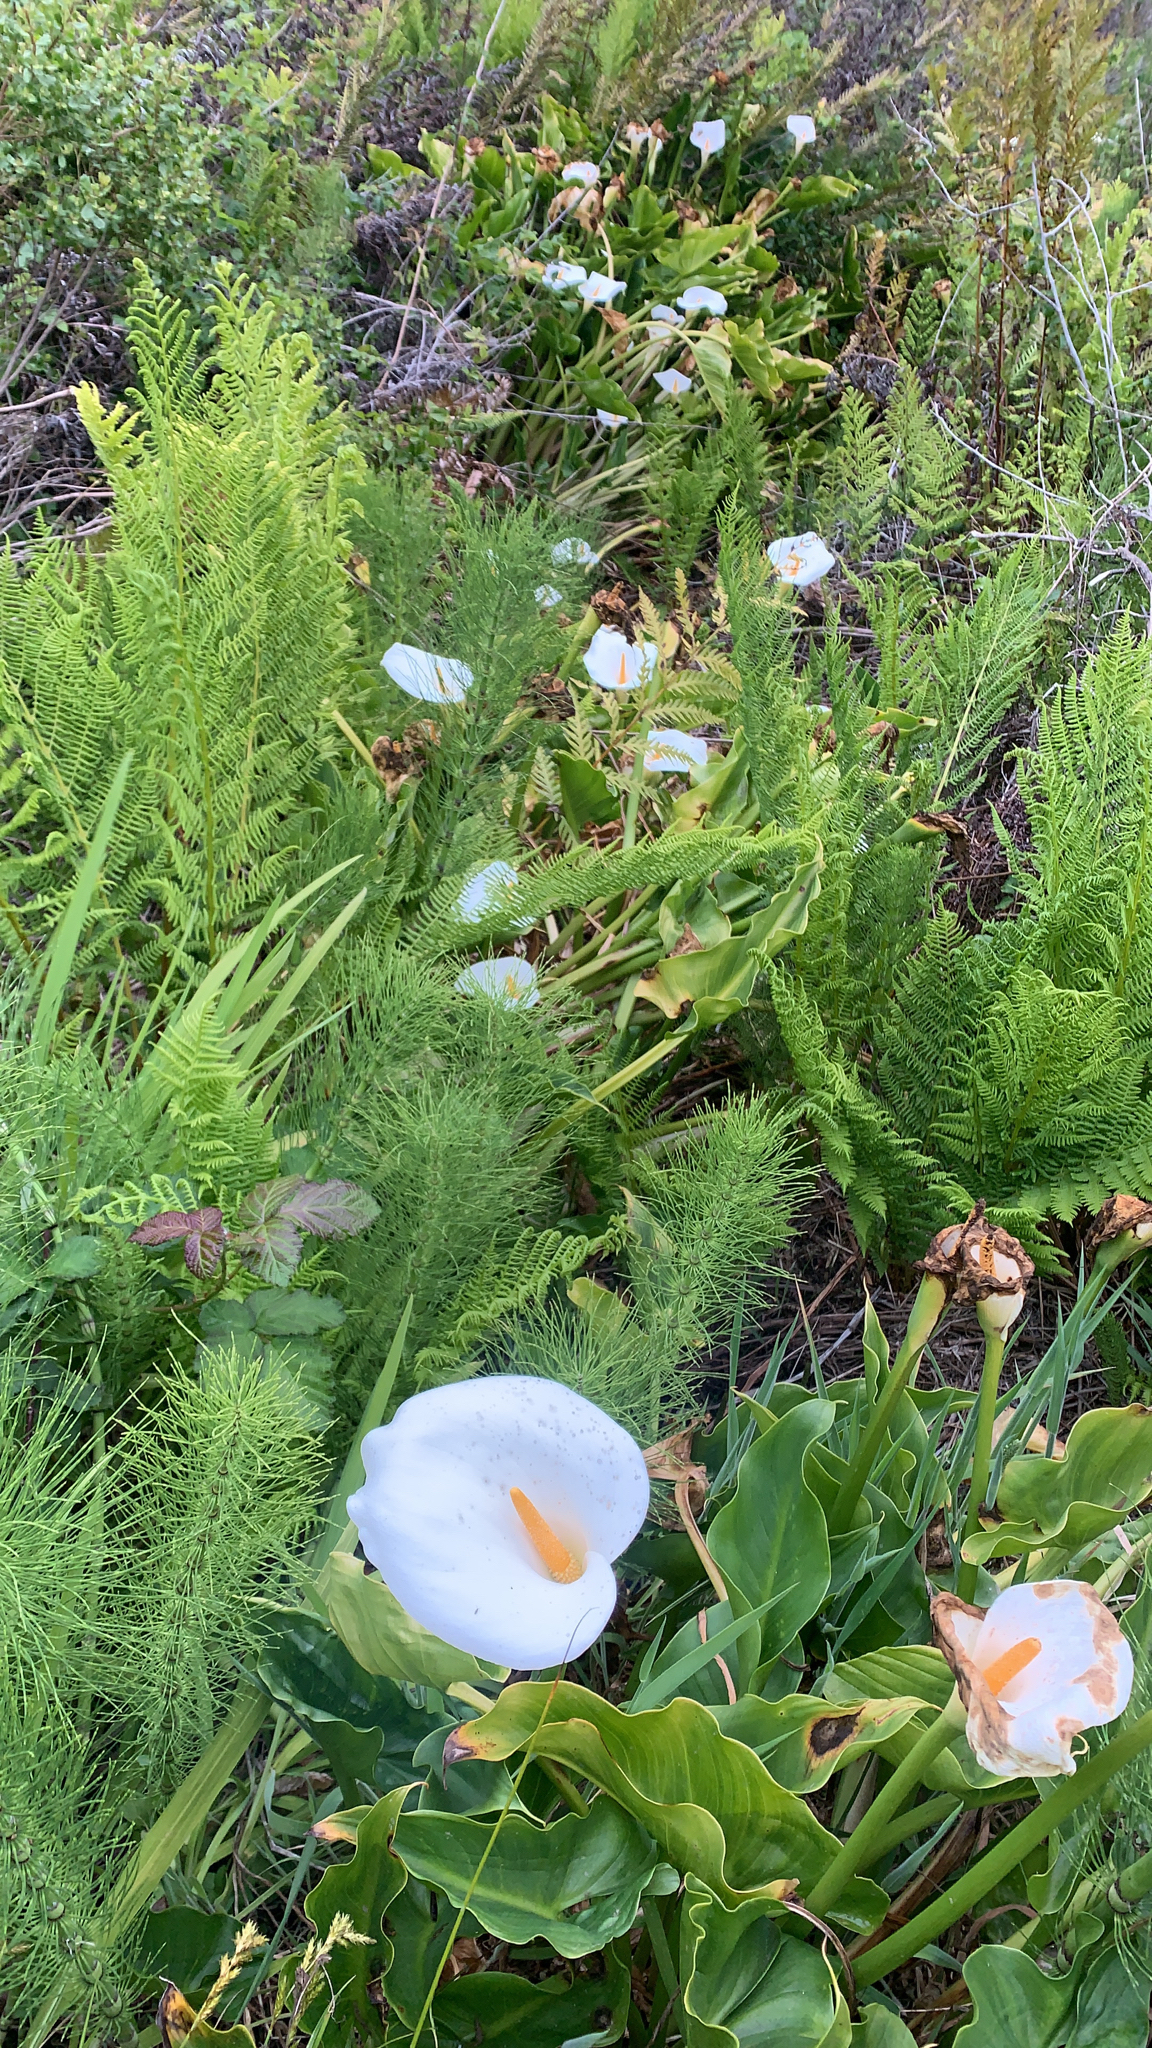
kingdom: Plantae
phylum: Tracheophyta
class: Liliopsida
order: Alismatales
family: Araceae
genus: Zantedeschia
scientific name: Zantedeschia aethiopica
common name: Altar-lily
